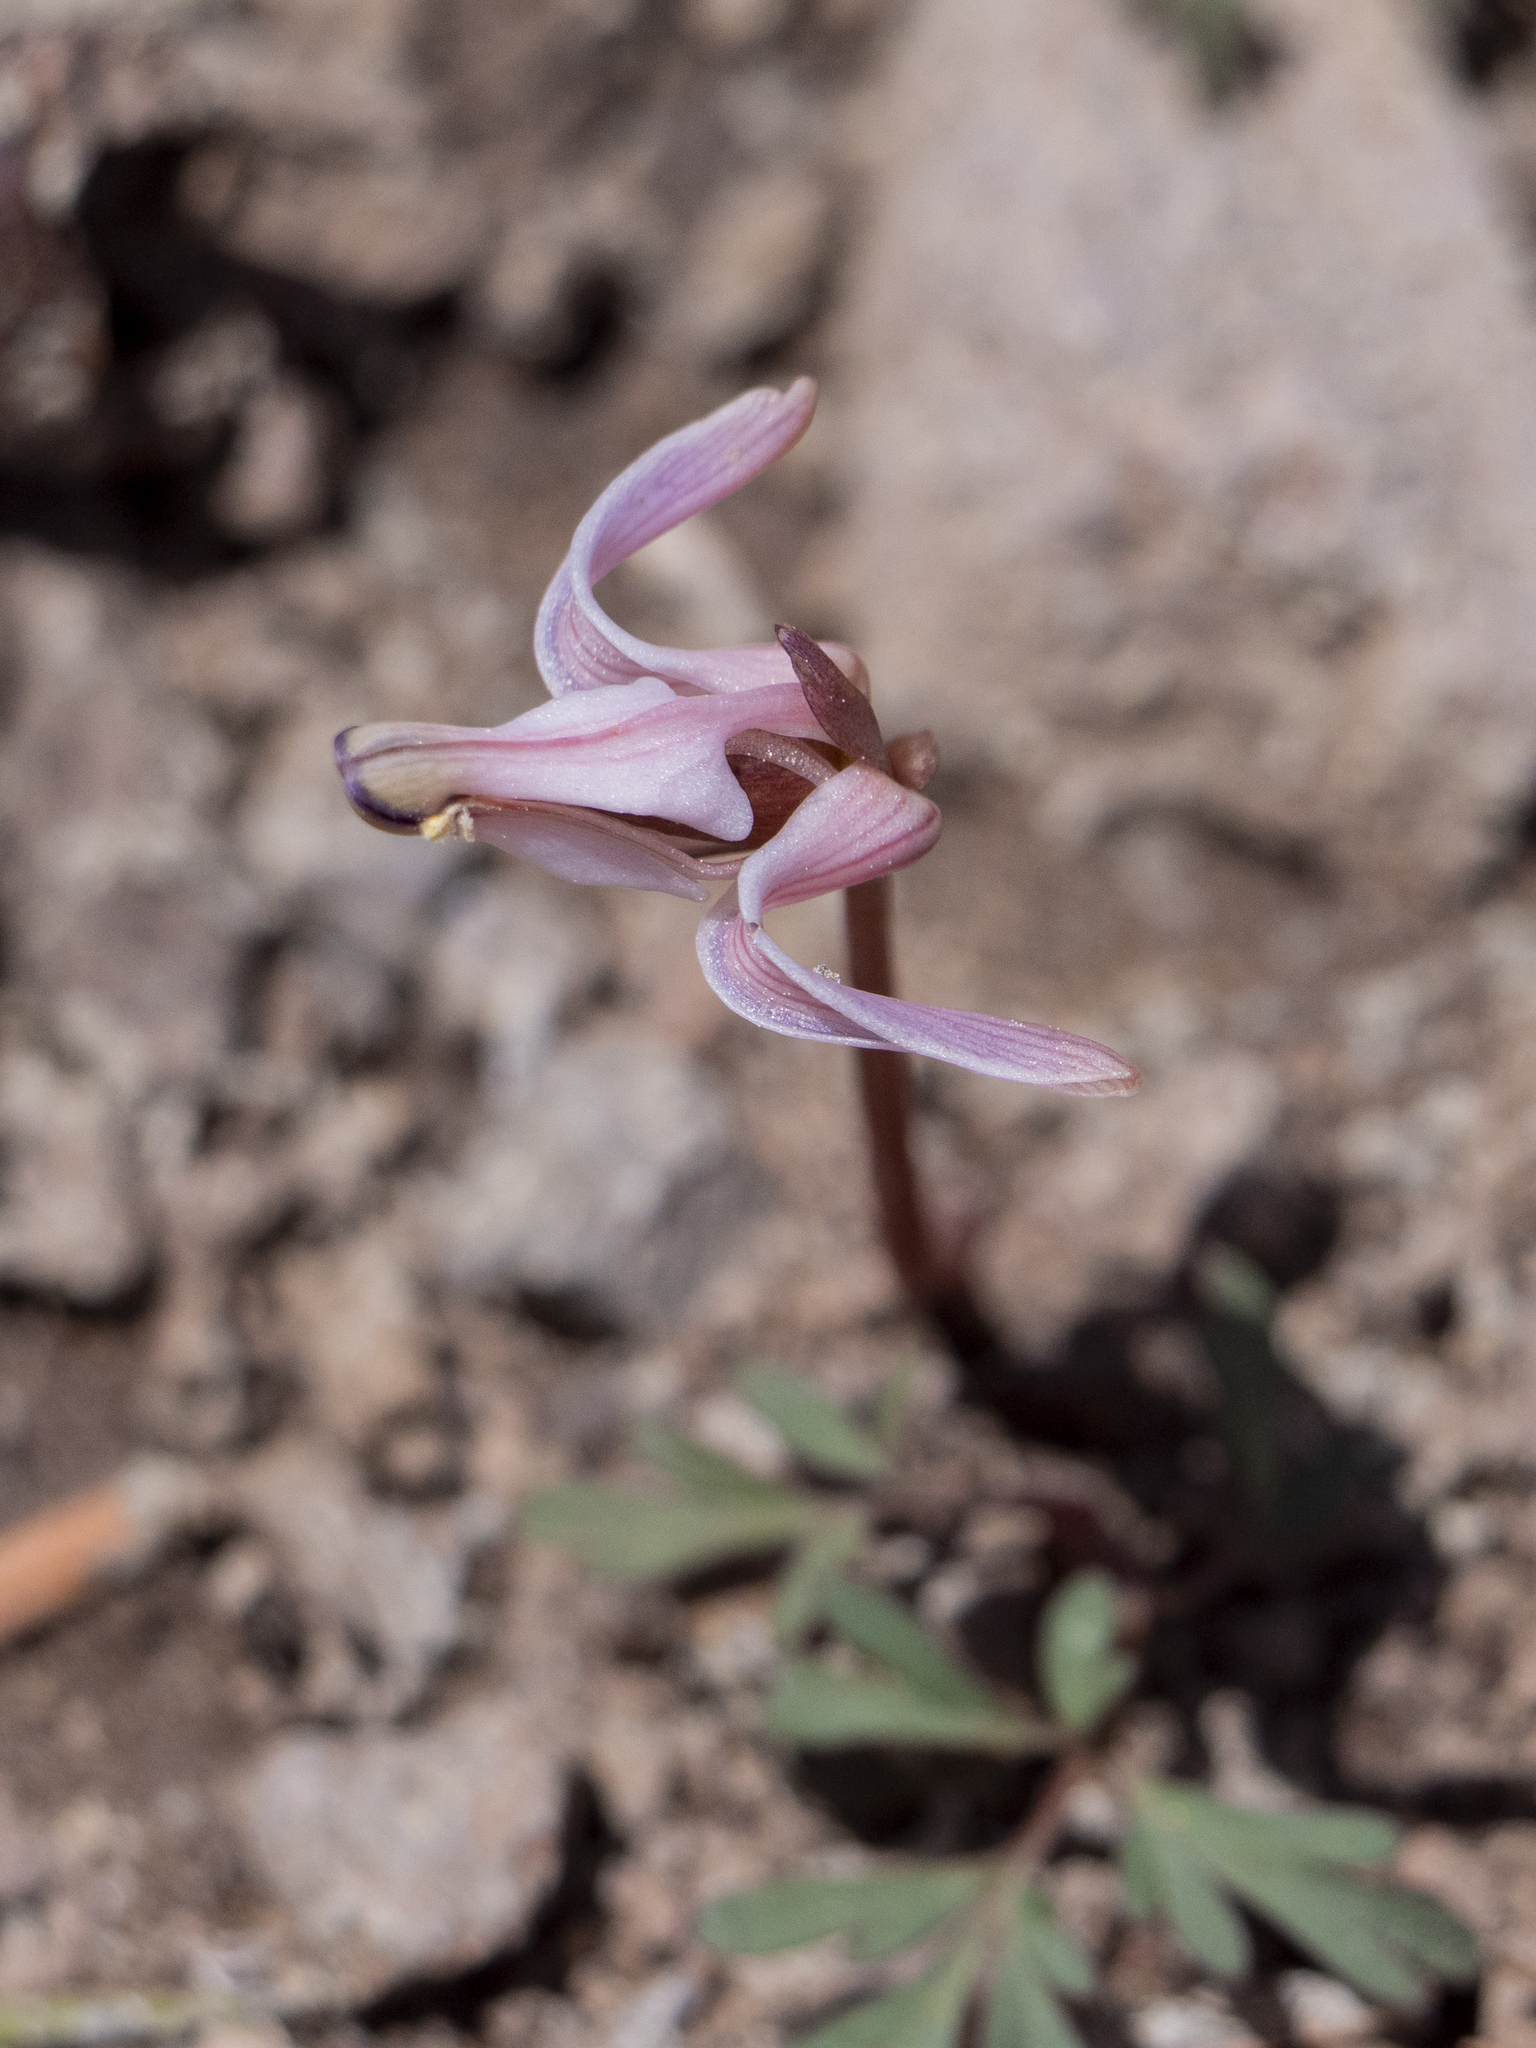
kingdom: Plantae
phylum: Tracheophyta
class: Magnoliopsida
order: Ranunculales
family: Papaveraceae
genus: Dicentra
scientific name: Dicentra uniflora
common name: Steer's-head
